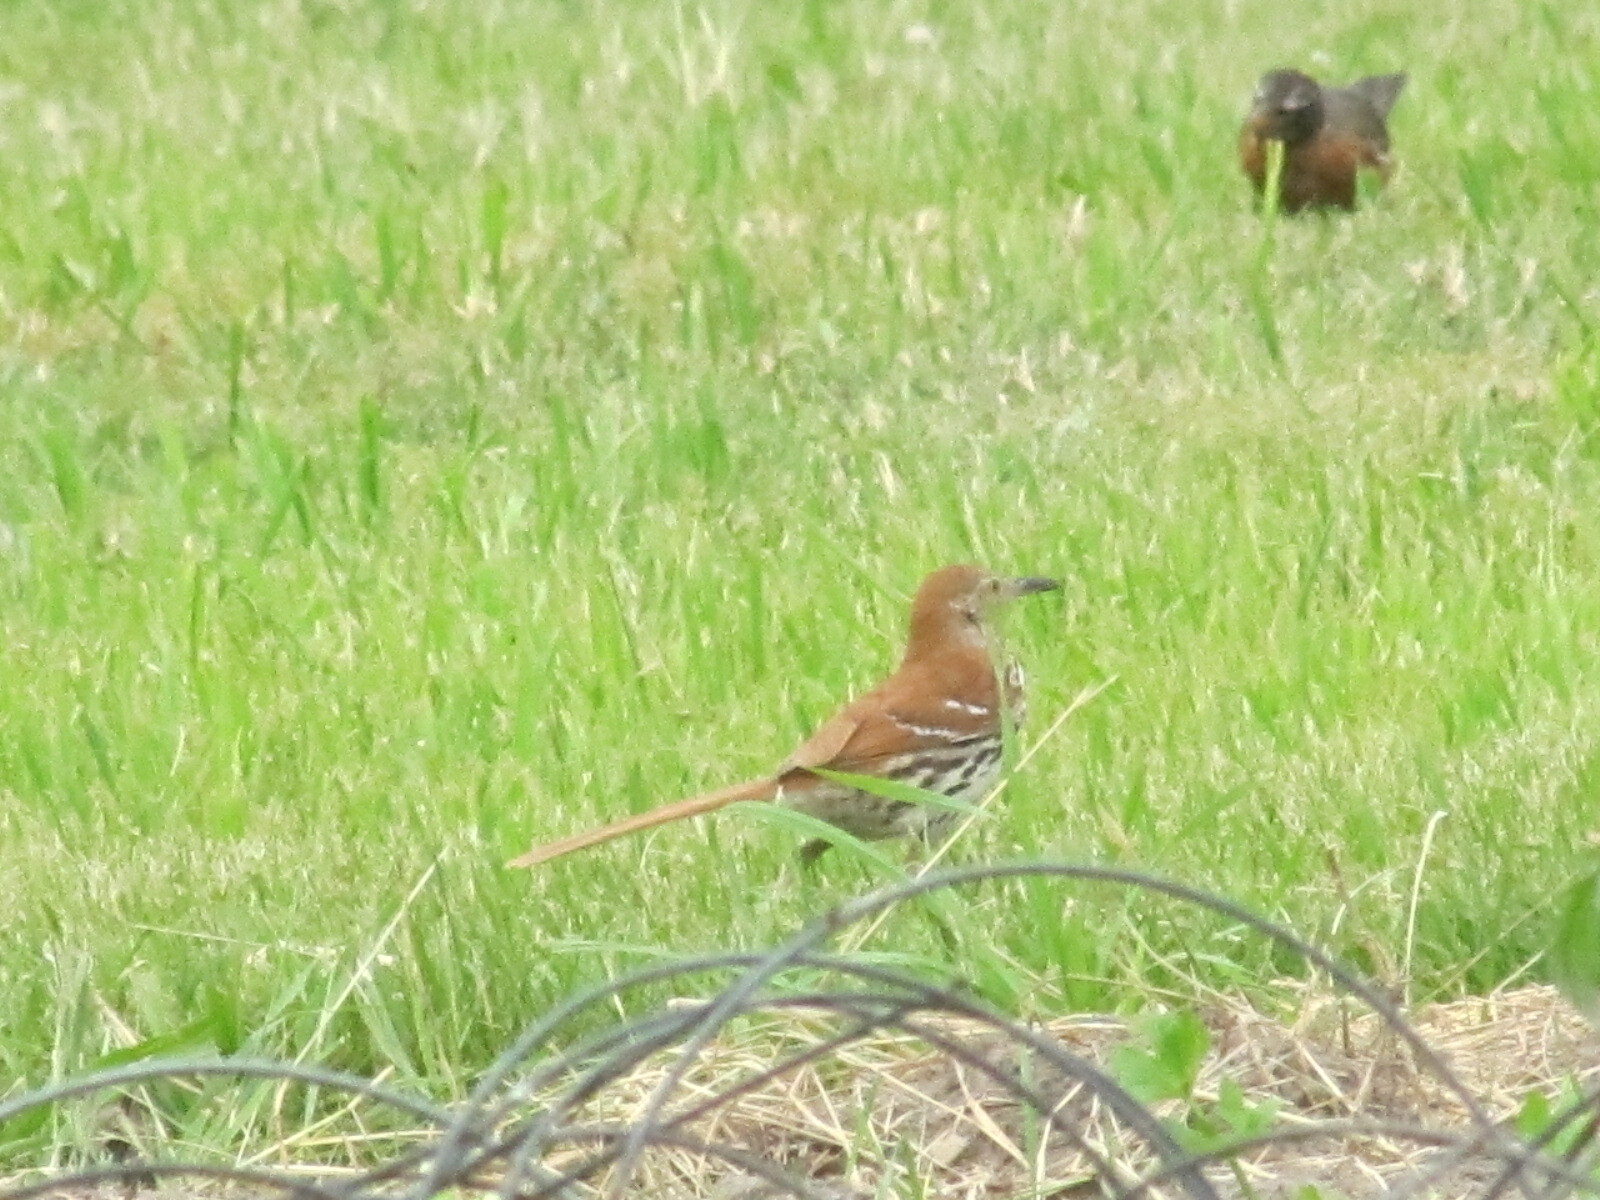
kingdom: Animalia
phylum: Chordata
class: Aves
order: Passeriformes
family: Mimidae
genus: Toxostoma
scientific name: Toxostoma rufum
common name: Brown thrasher
